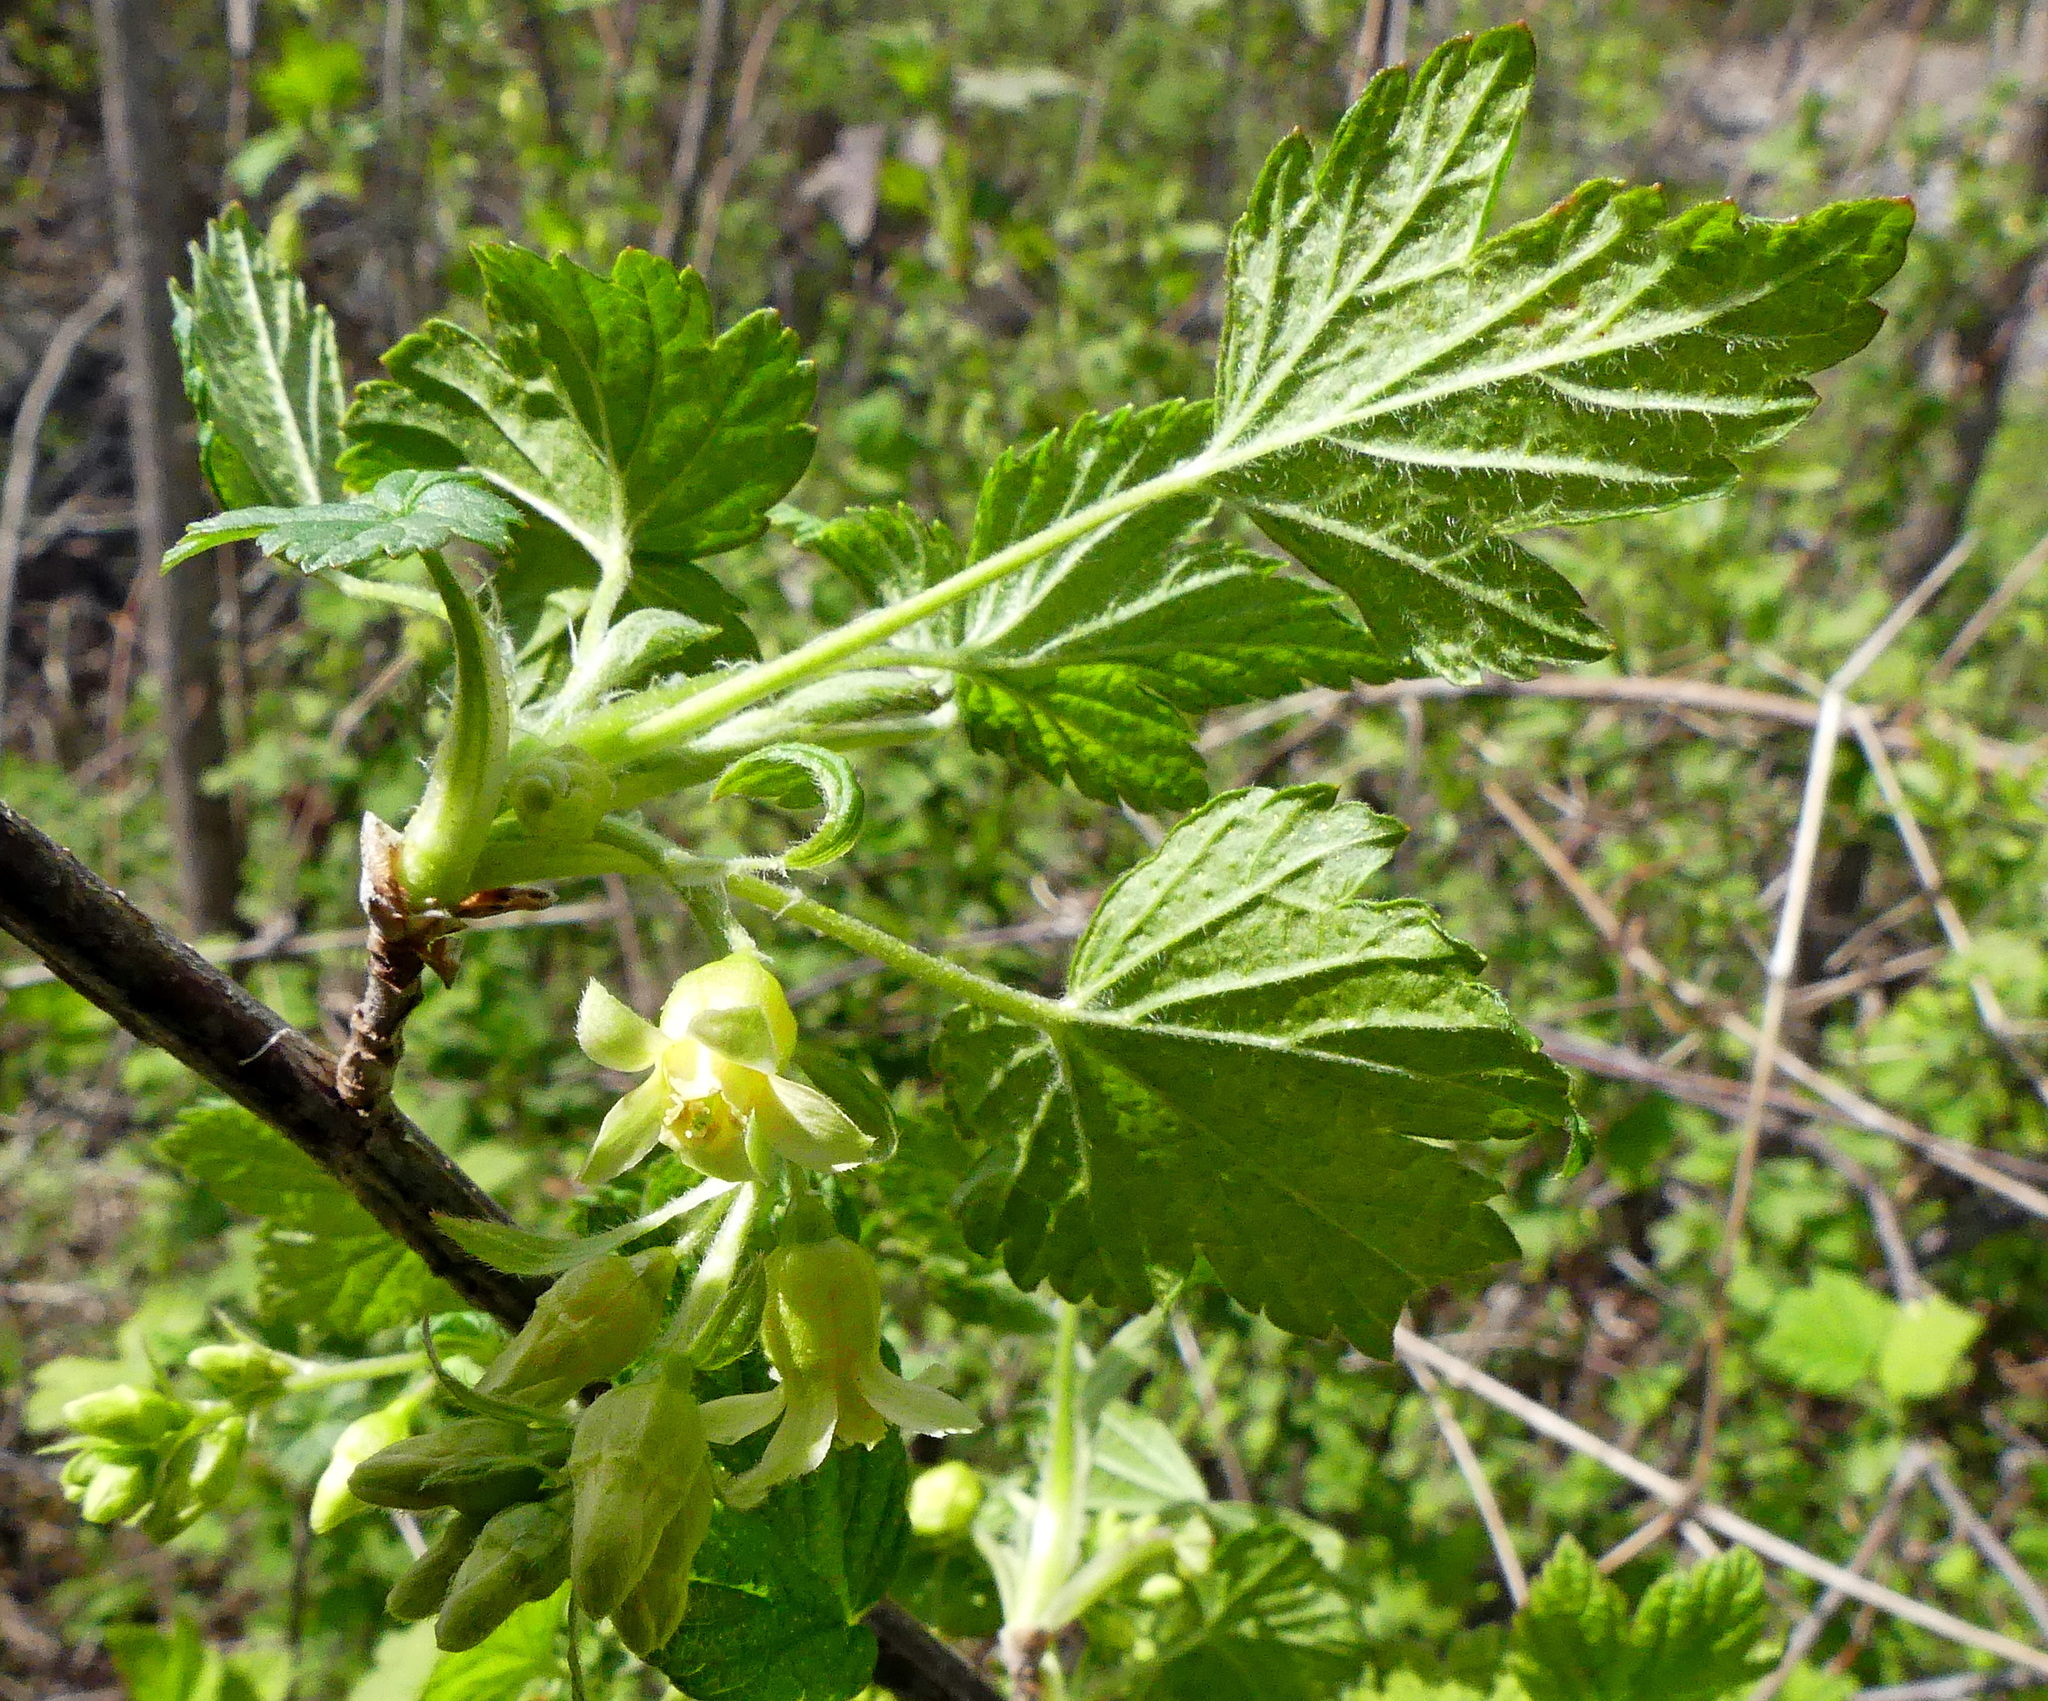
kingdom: Plantae
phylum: Tracheophyta
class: Magnoliopsida
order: Saxifragales
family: Grossulariaceae
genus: Ribes
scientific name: Ribes americanum
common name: American black currant
